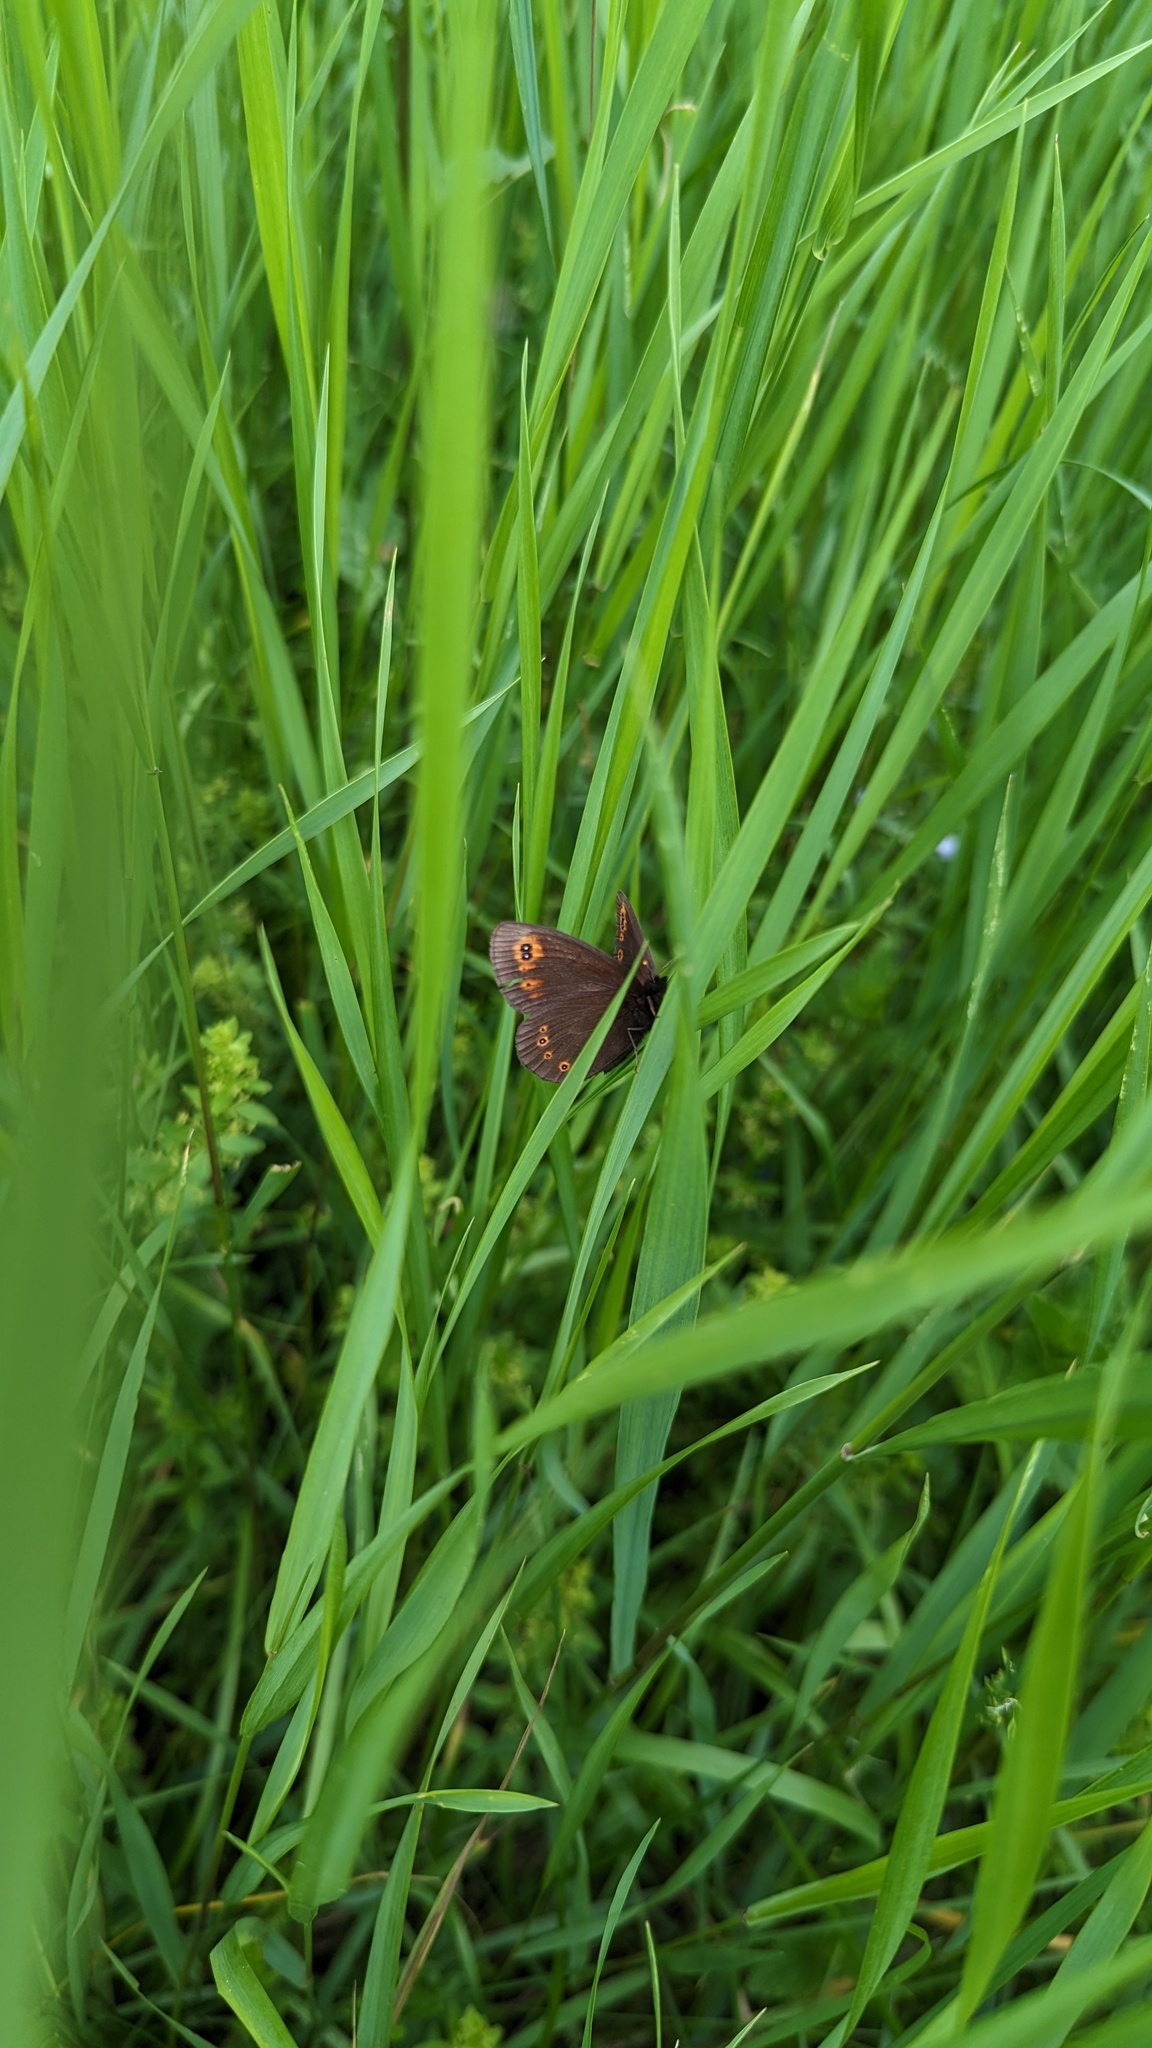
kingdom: Animalia
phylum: Arthropoda
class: Insecta
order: Lepidoptera
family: Nymphalidae
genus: Erebia
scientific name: Erebia medusa
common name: Woodland ringlet
